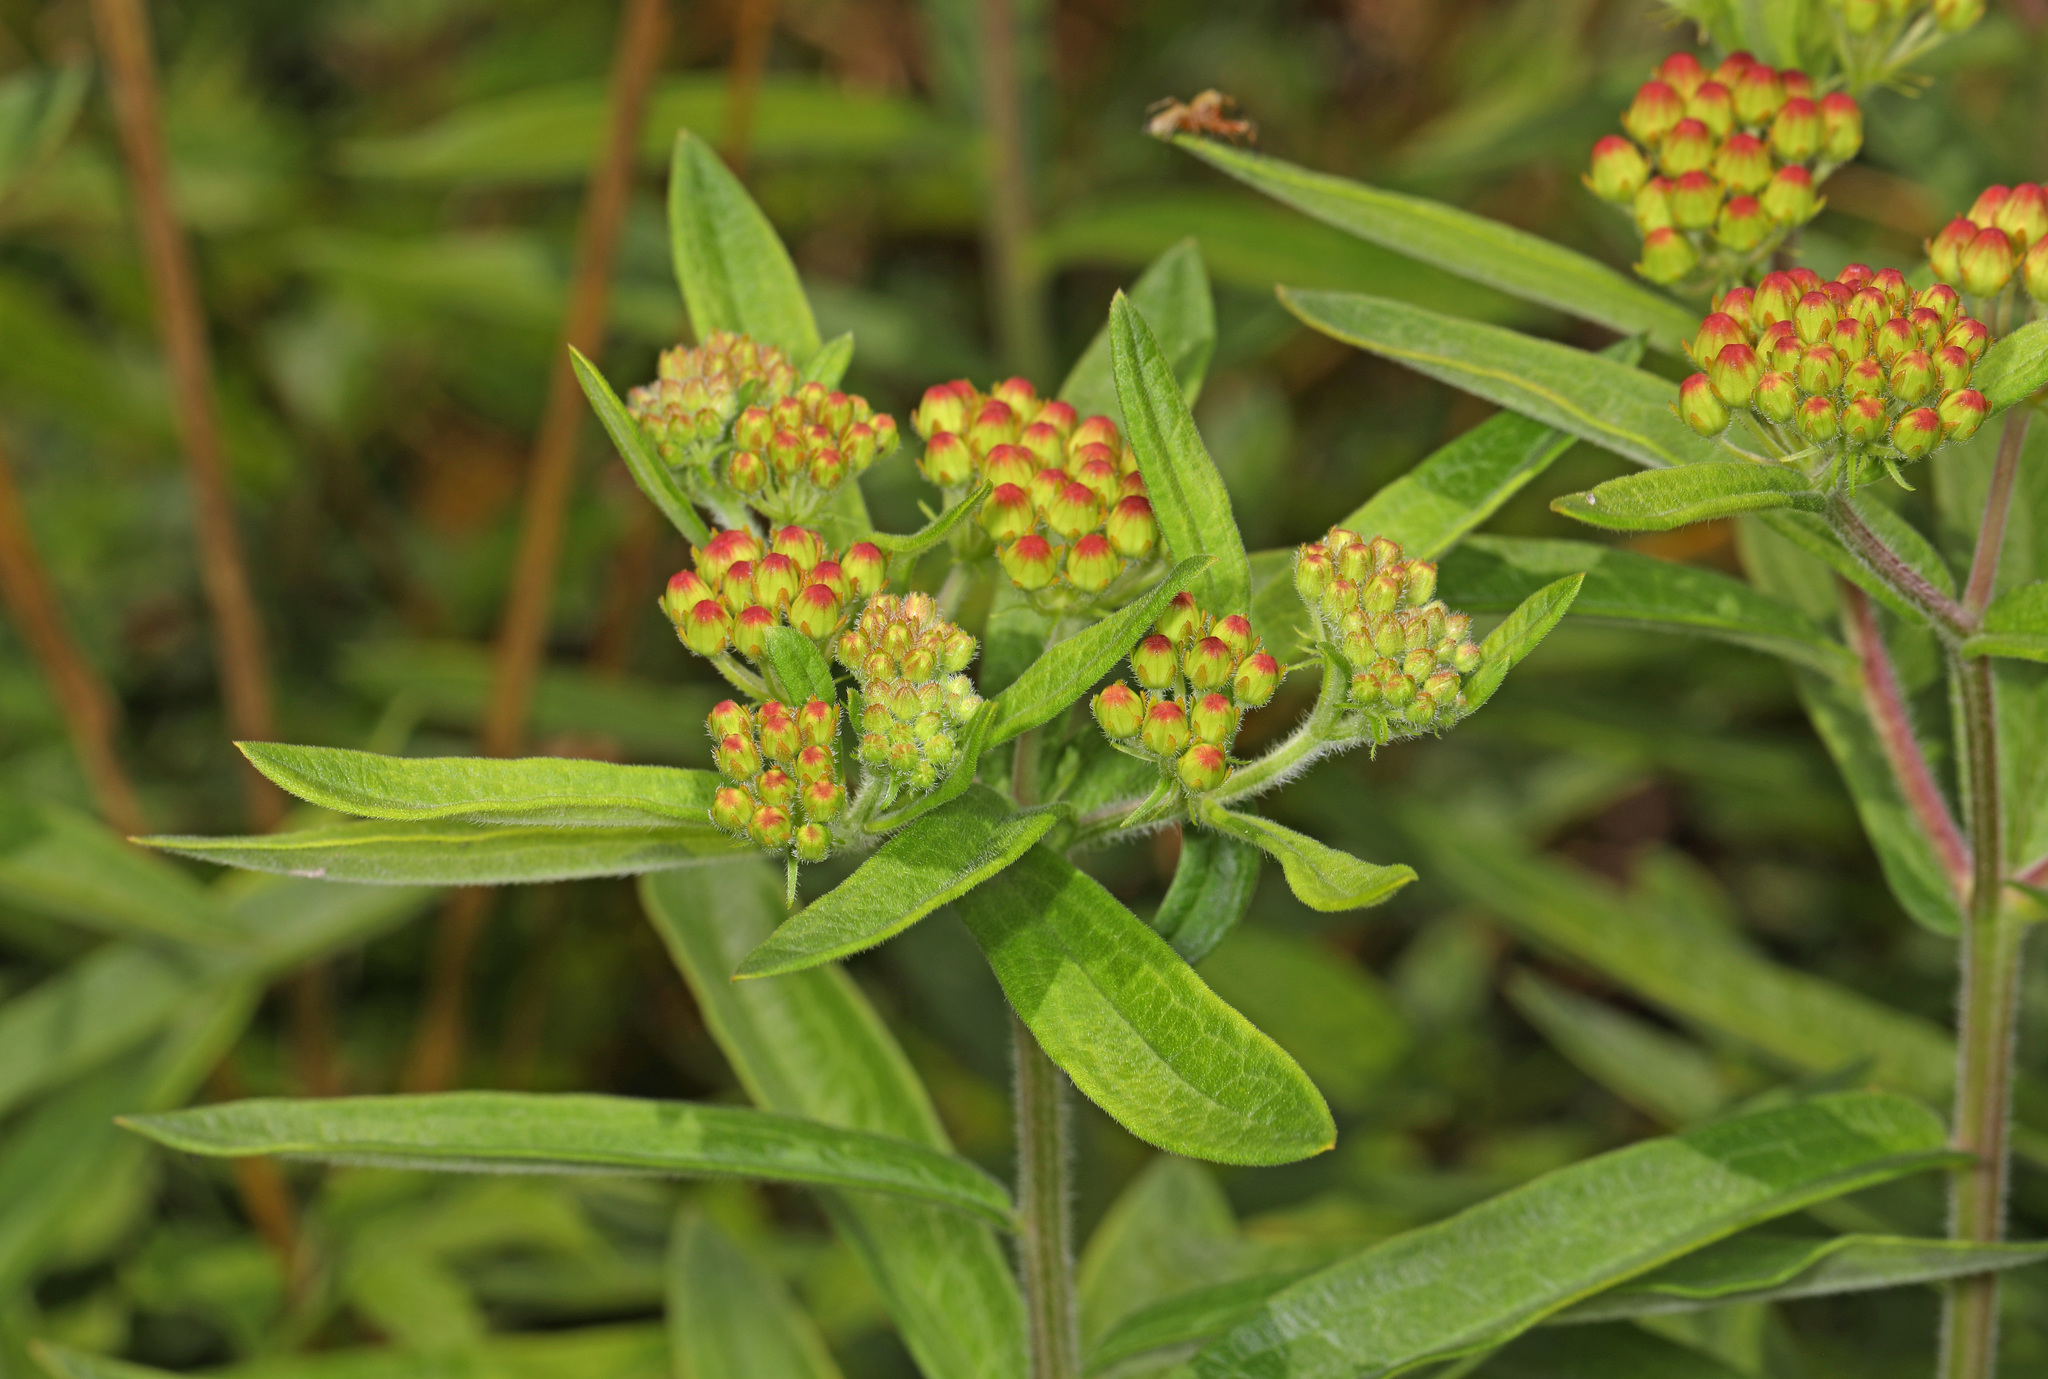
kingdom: Plantae
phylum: Tracheophyta
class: Magnoliopsida
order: Gentianales
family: Apocynaceae
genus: Asclepias
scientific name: Asclepias tuberosa
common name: Butterfly milkweed
